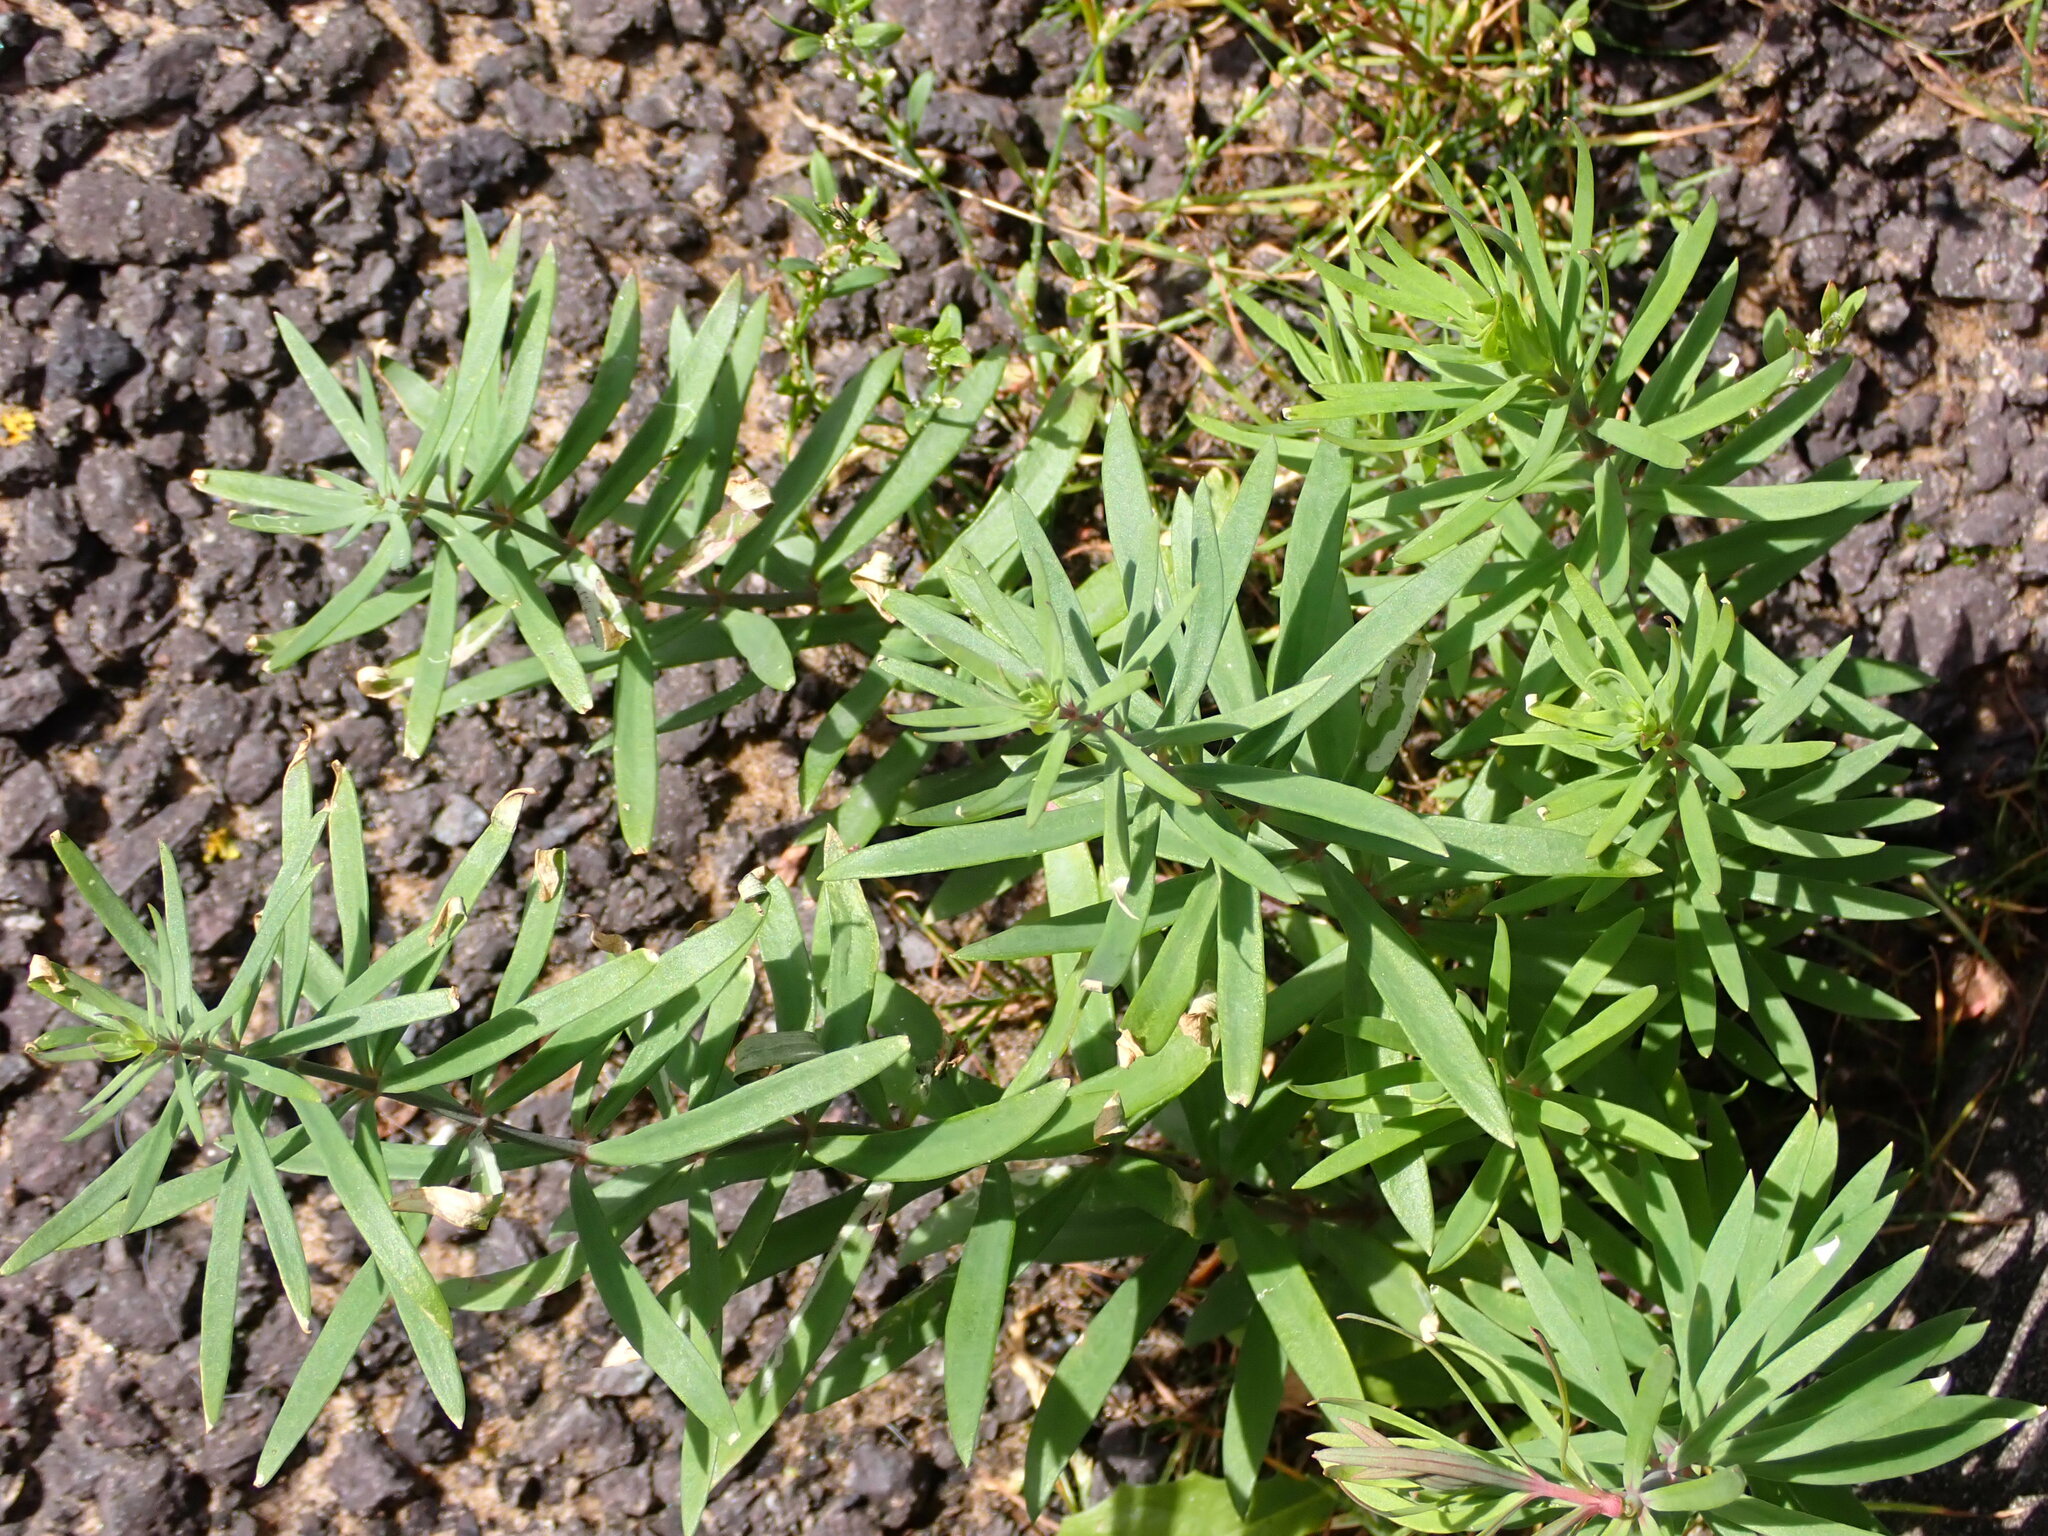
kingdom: Plantae
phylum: Tracheophyta
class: Magnoliopsida
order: Lamiales
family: Plantaginaceae
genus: Linaria
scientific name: Linaria purpurea
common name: Purple toadflax
